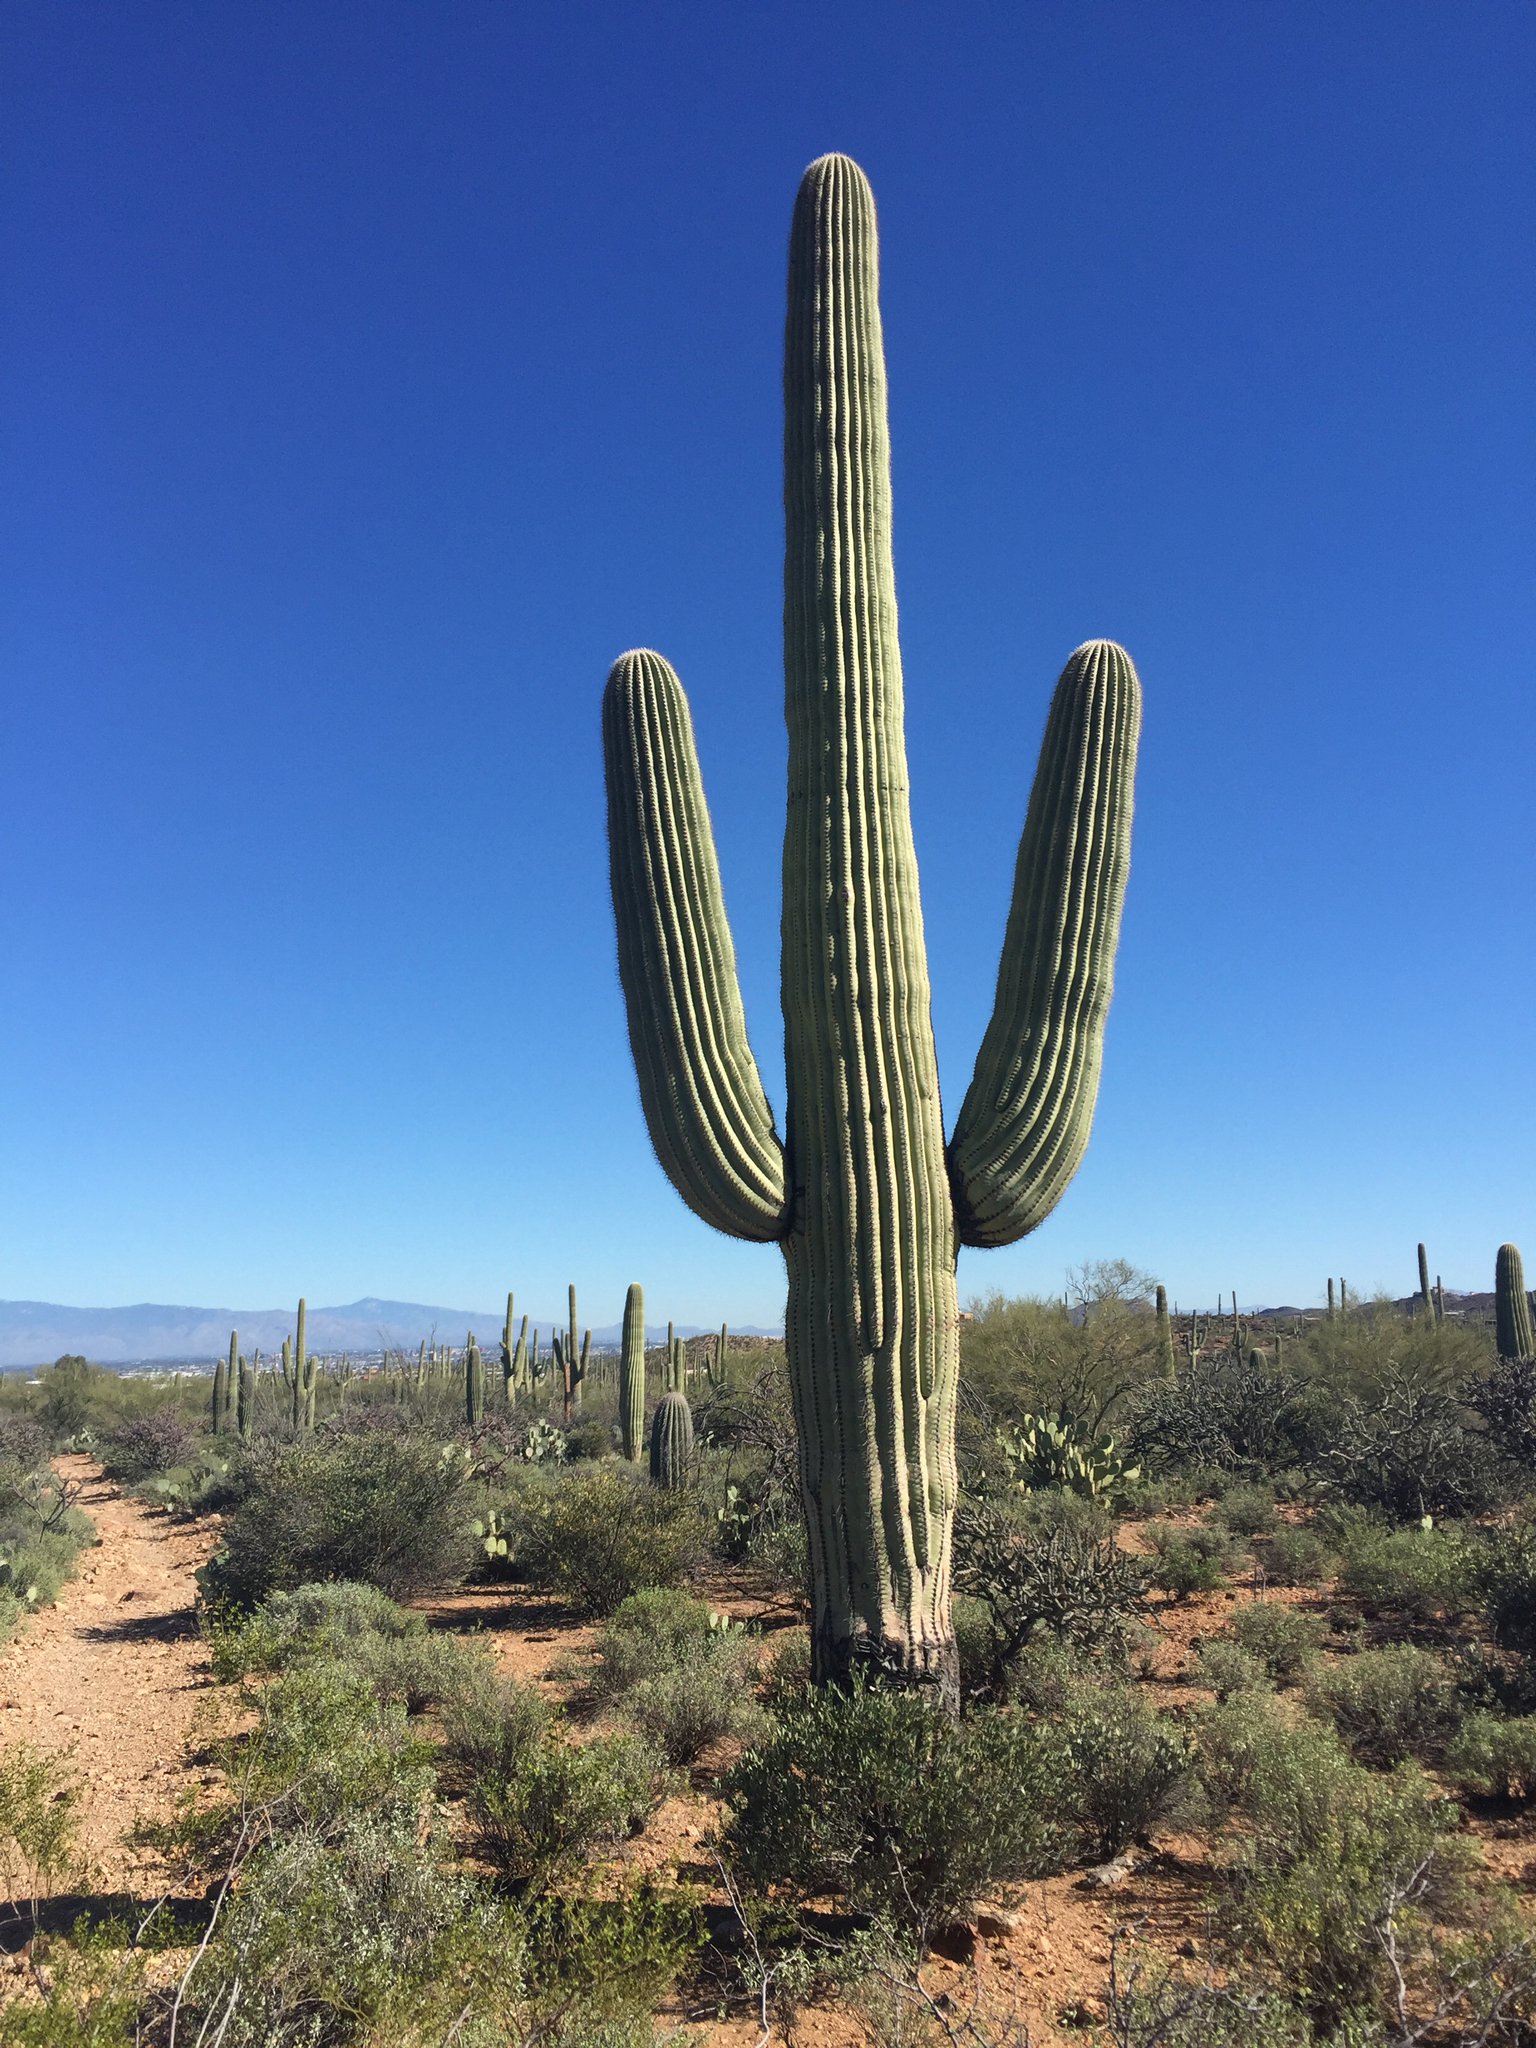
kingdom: Plantae
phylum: Tracheophyta
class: Magnoliopsida
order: Caryophyllales
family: Cactaceae
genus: Carnegiea
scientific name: Carnegiea gigantea
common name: Saguaro
